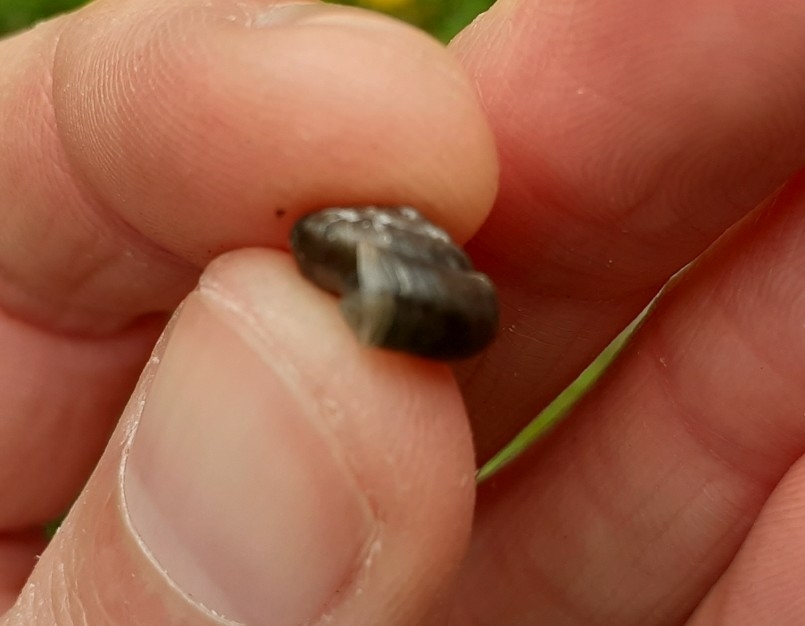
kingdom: Animalia
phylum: Mollusca
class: Gastropoda
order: Stylommatophora
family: Hygromiidae
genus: Trochulus
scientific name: Trochulus striolatus
